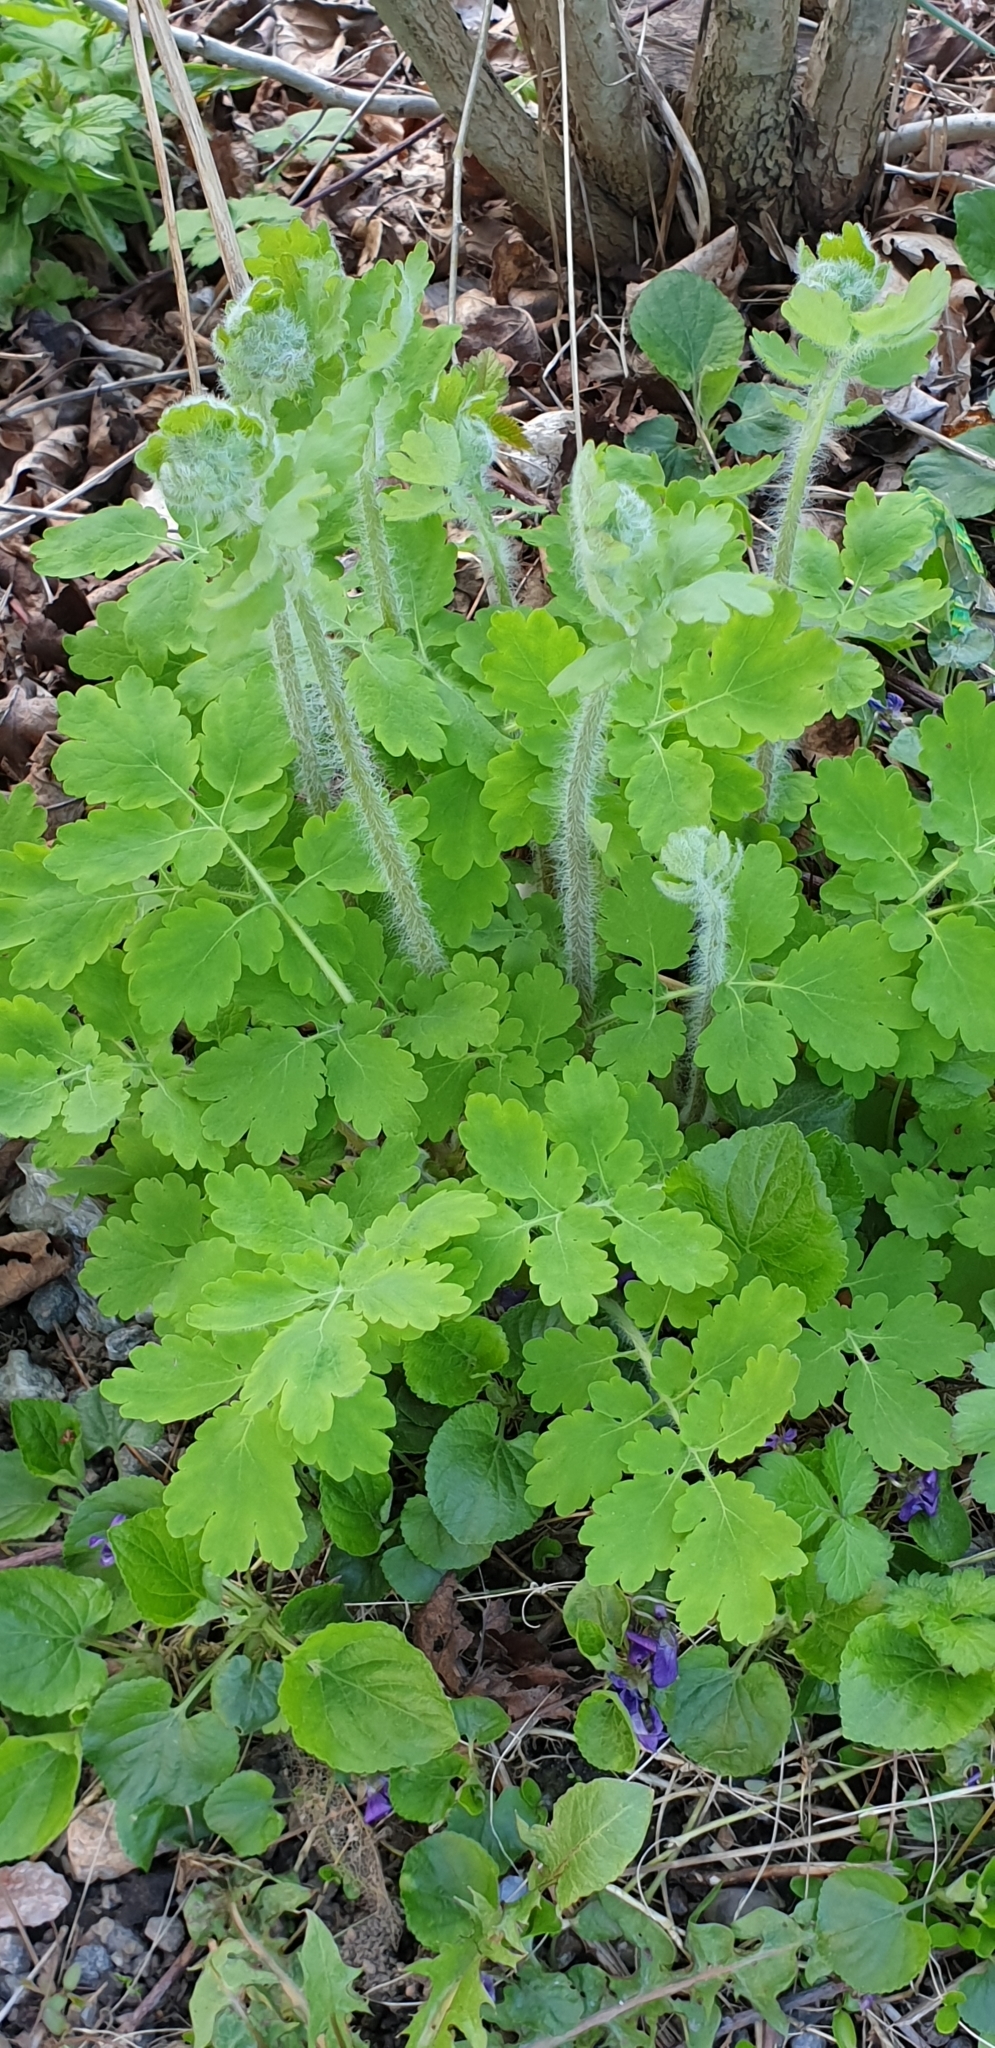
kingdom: Plantae
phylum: Tracheophyta
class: Magnoliopsida
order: Ranunculales
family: Papaveraceae
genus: Chelidonium
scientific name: Chelidonium majus
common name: Greater celandine
